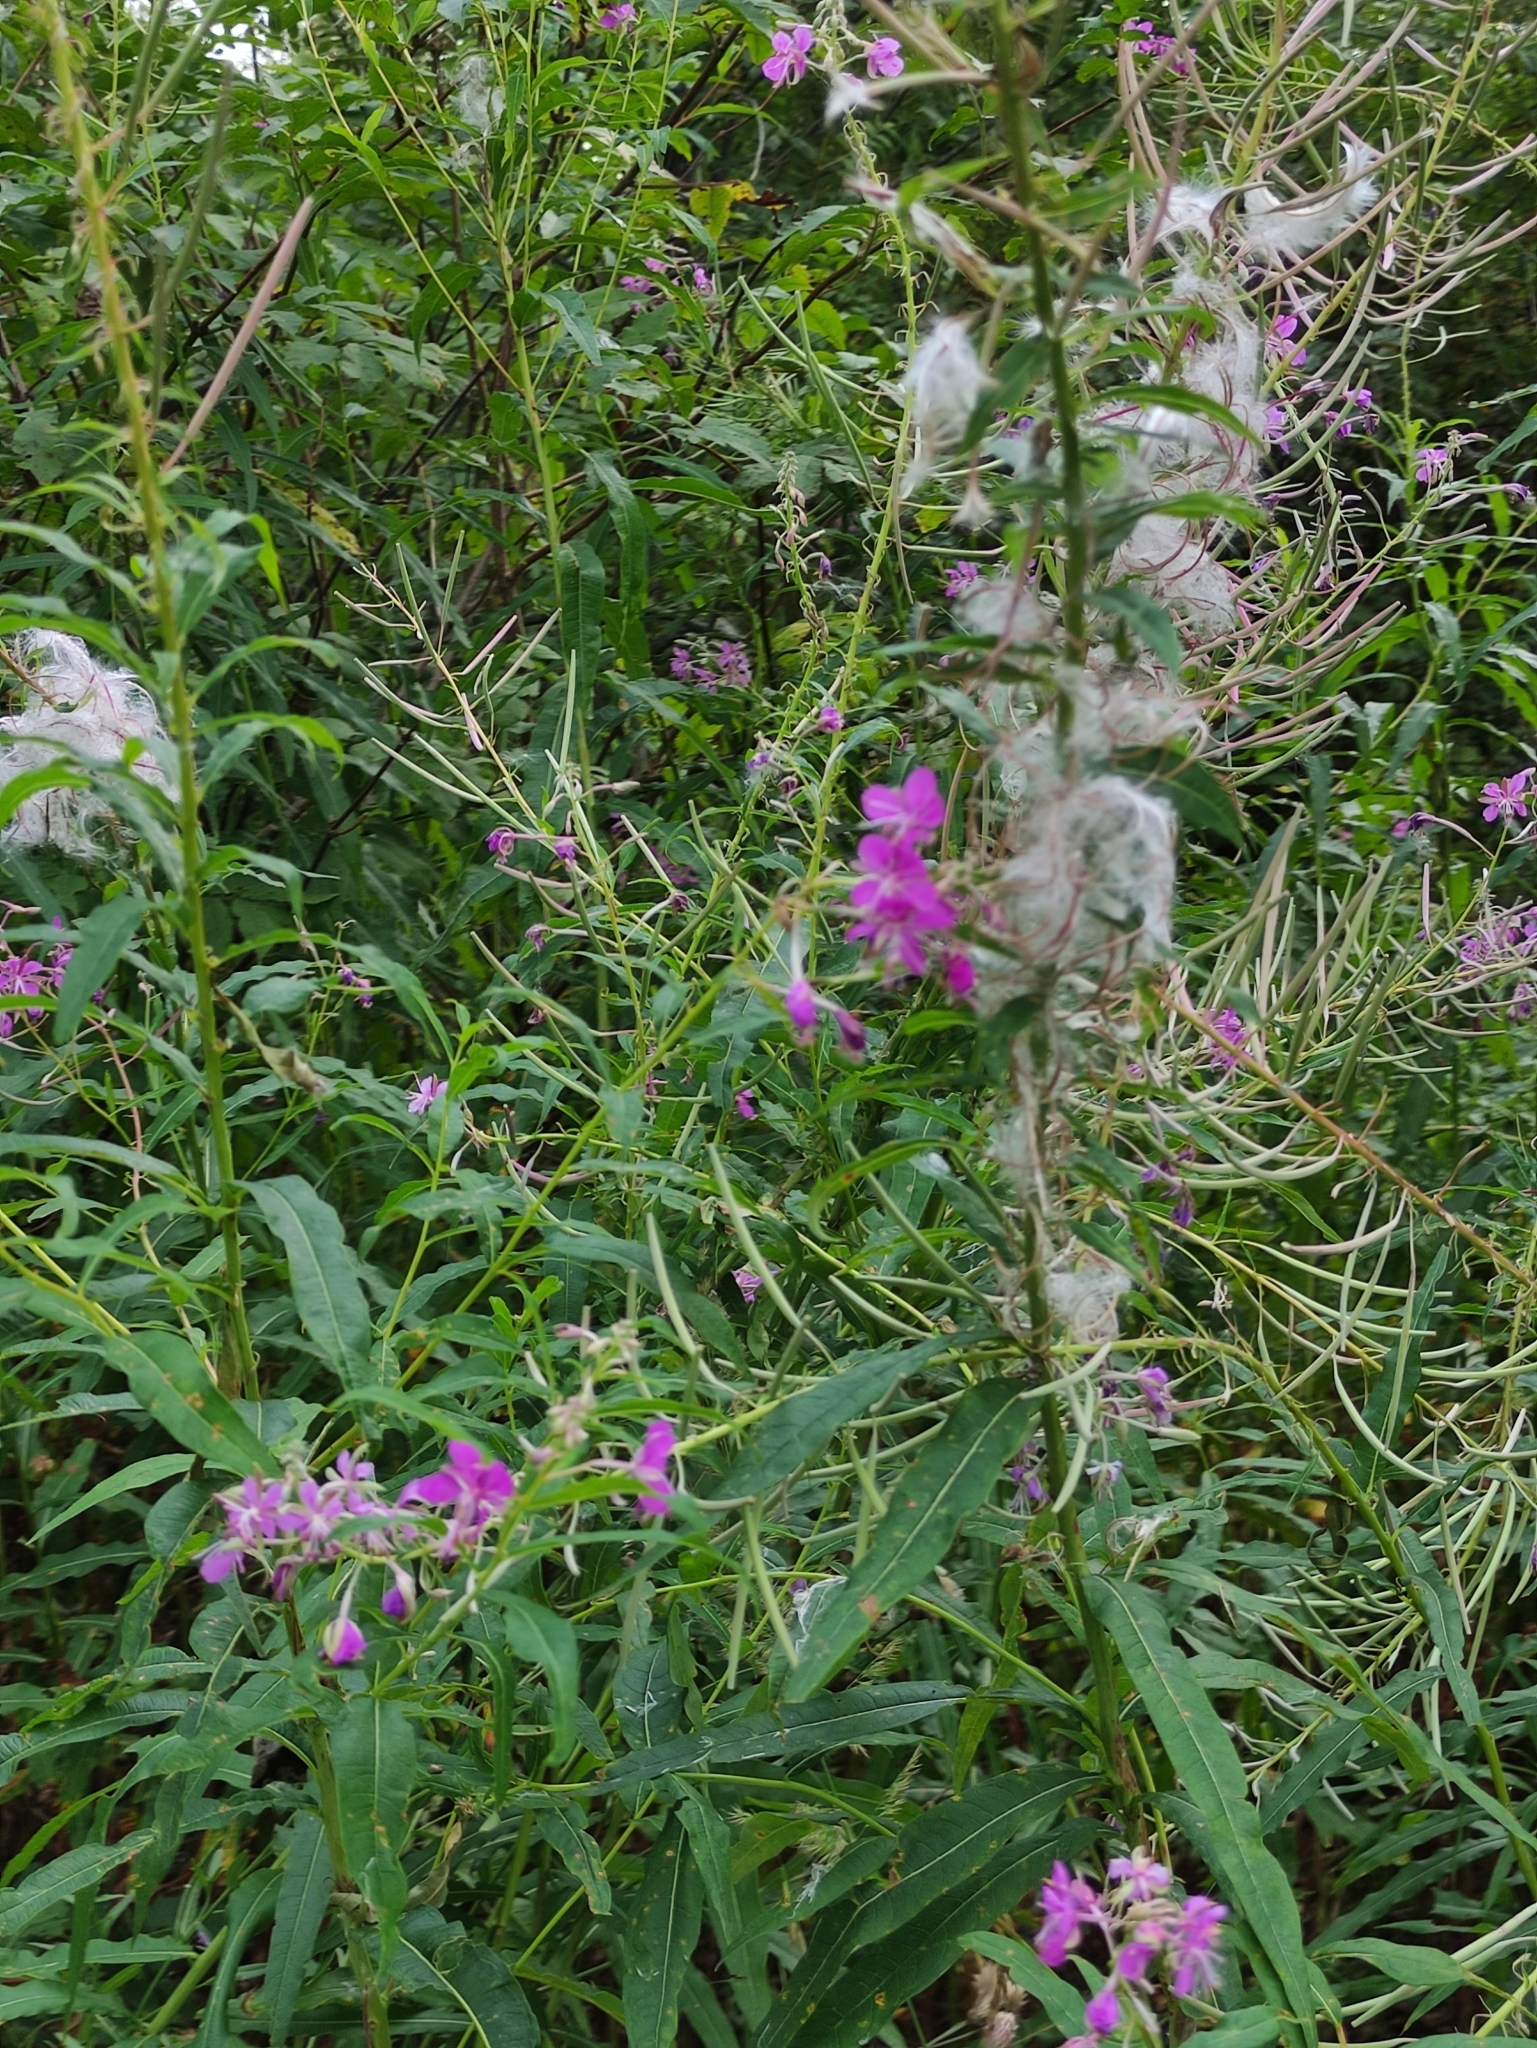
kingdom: Plantae
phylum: Tracheophyta
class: Magnoliopsida
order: Myrtales
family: Onagraceae
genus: Chamaenerion
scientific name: Chamaenerion angustifolium
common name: Fireweed
